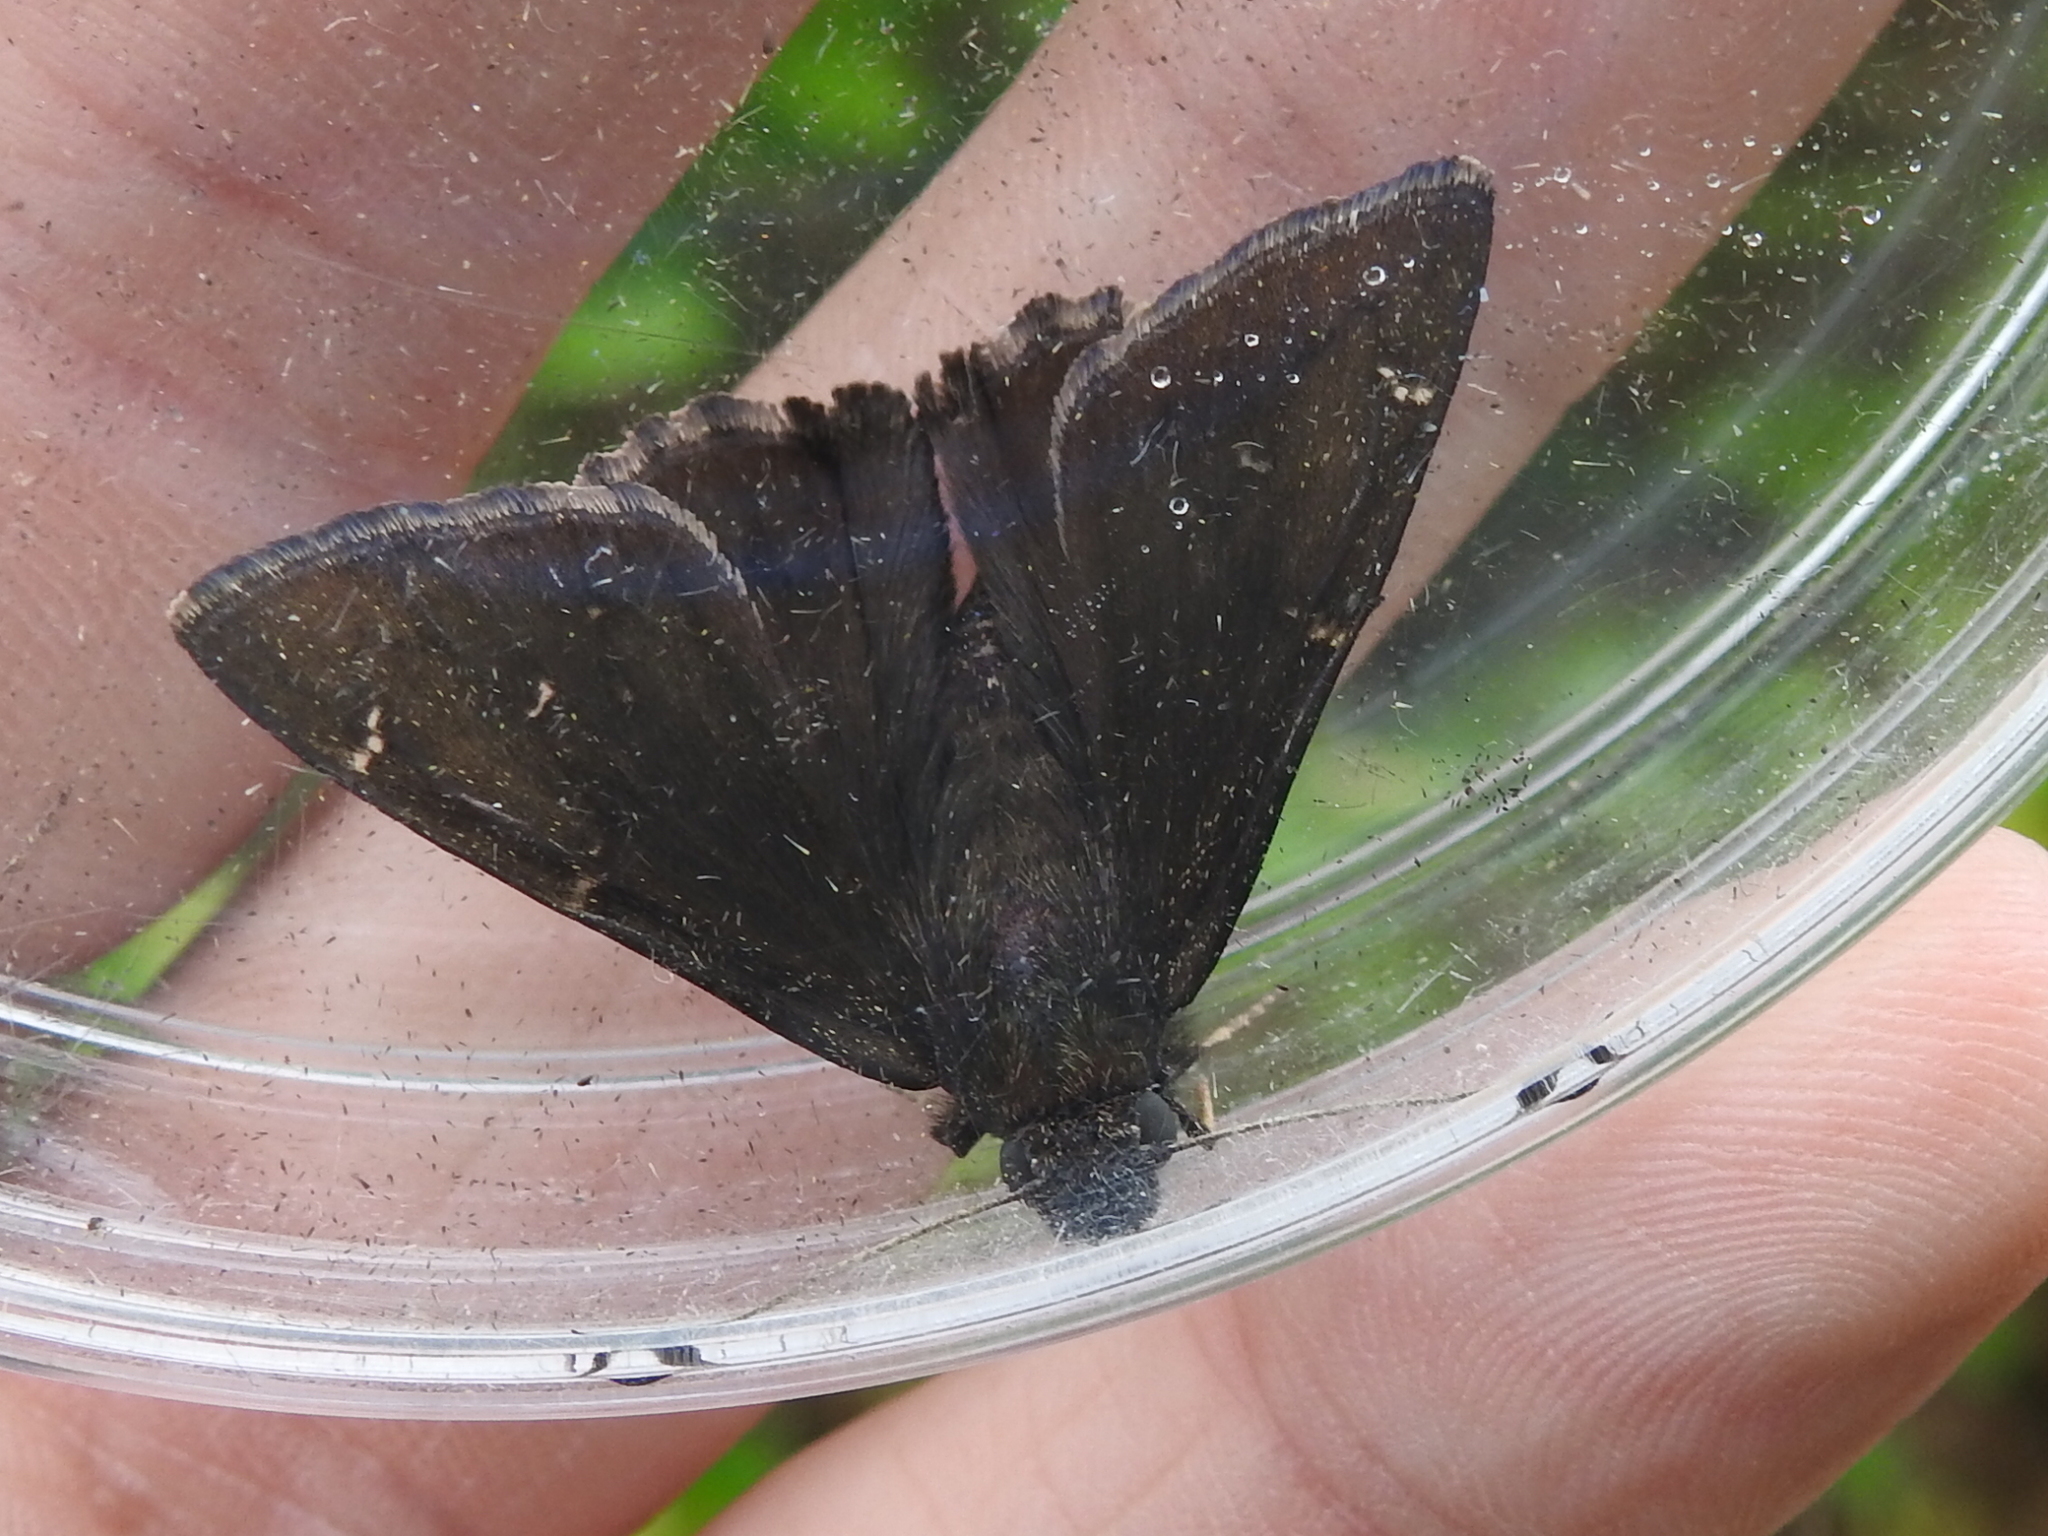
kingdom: Animalia
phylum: Arthropoda
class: Insecta
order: Lepidoptera
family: Hesperiidae
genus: Thorybes
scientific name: Thorybes pylades
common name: Northern cloudywing
